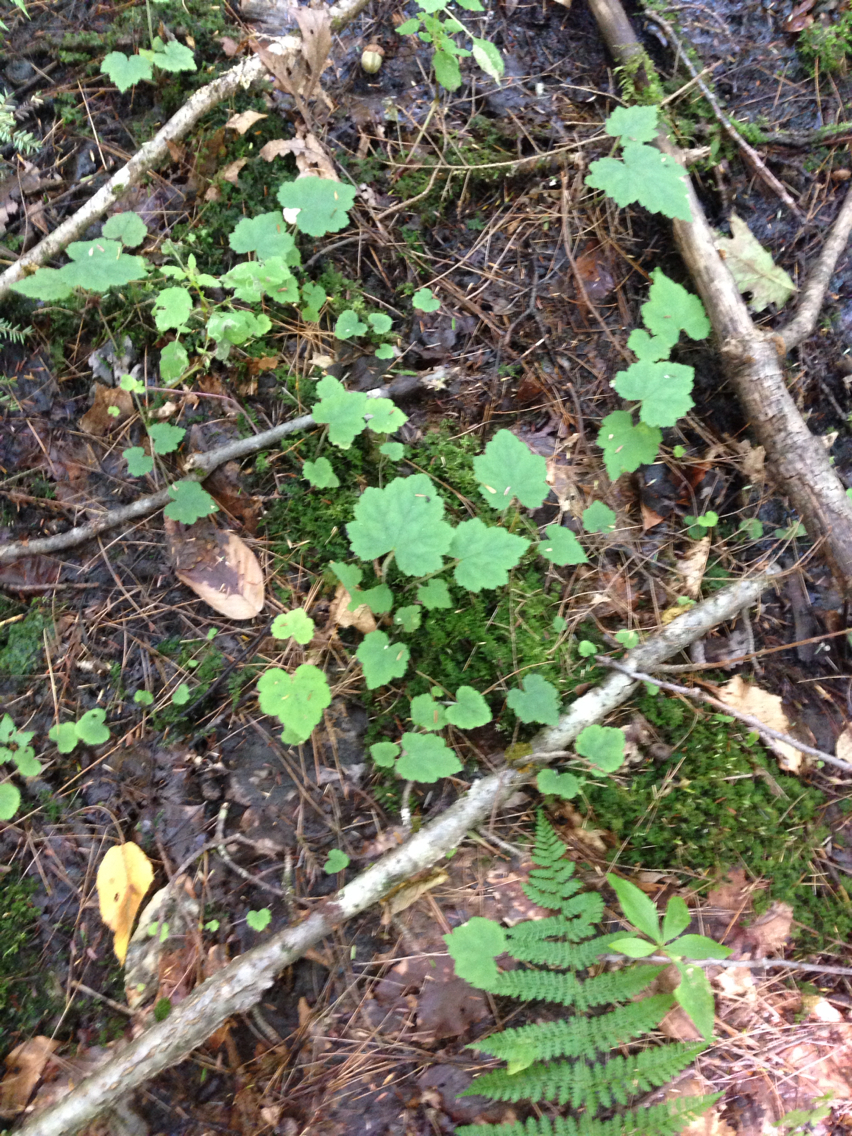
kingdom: Plantae
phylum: Tracheophyta
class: Magnoliopsida
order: Saxifragales
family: Saxifragaceae
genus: Tiarella
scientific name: Tiarella stolonifera
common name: Stoloniferous foamflower
